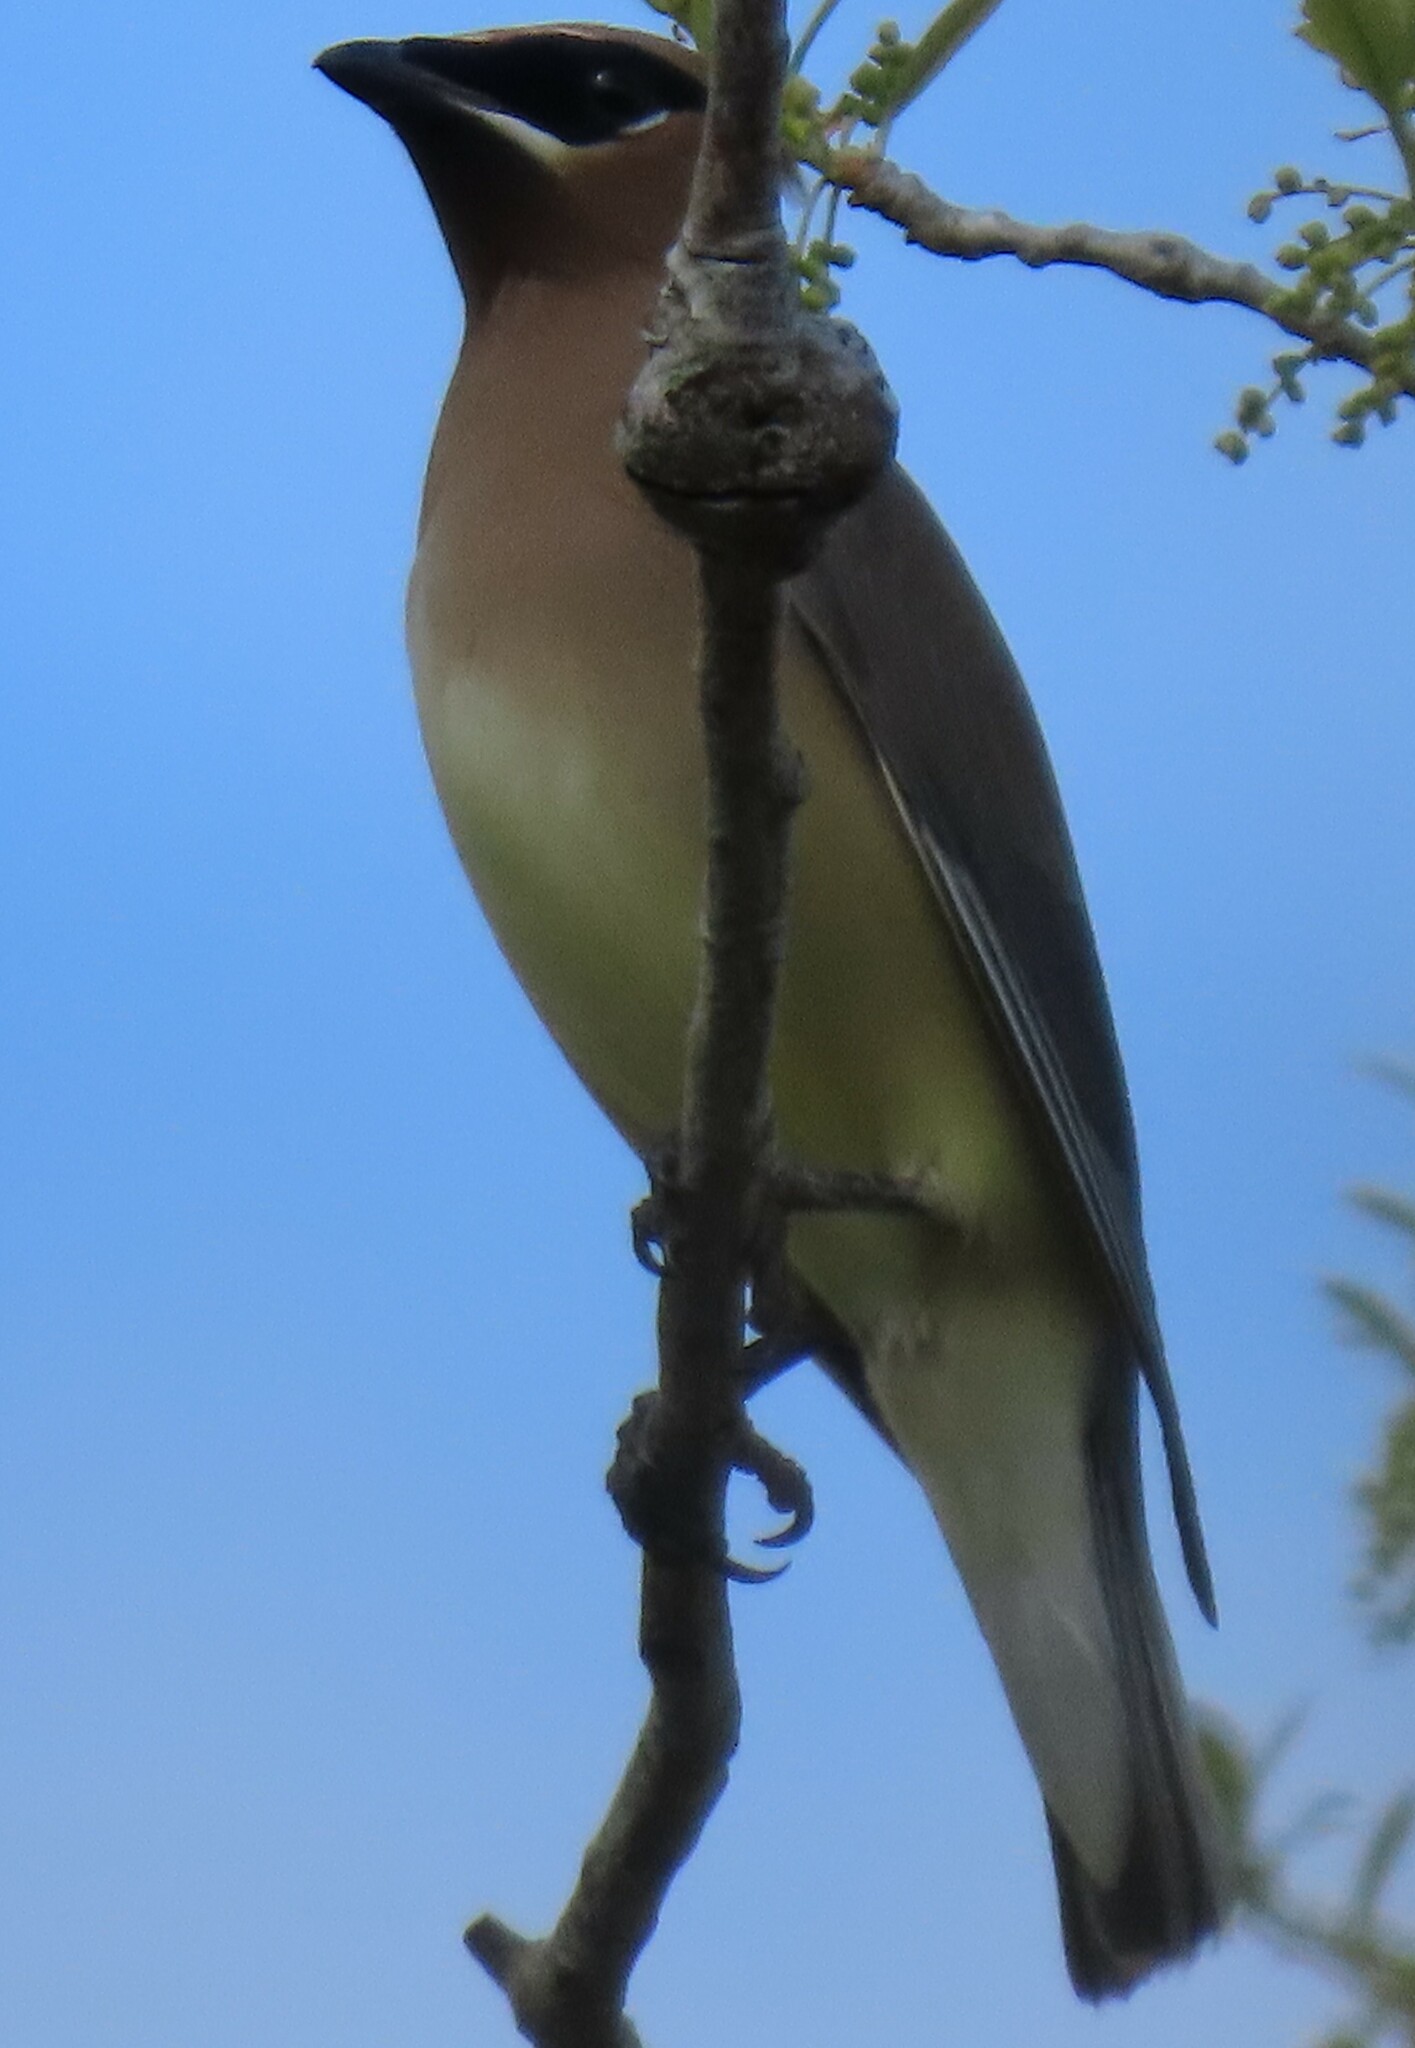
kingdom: Animalia
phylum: Chordata
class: Aves
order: Passeriformes
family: Bombycillidae
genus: Bombycilla
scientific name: Bombycilla cedrorum
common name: Cedar waxwing
